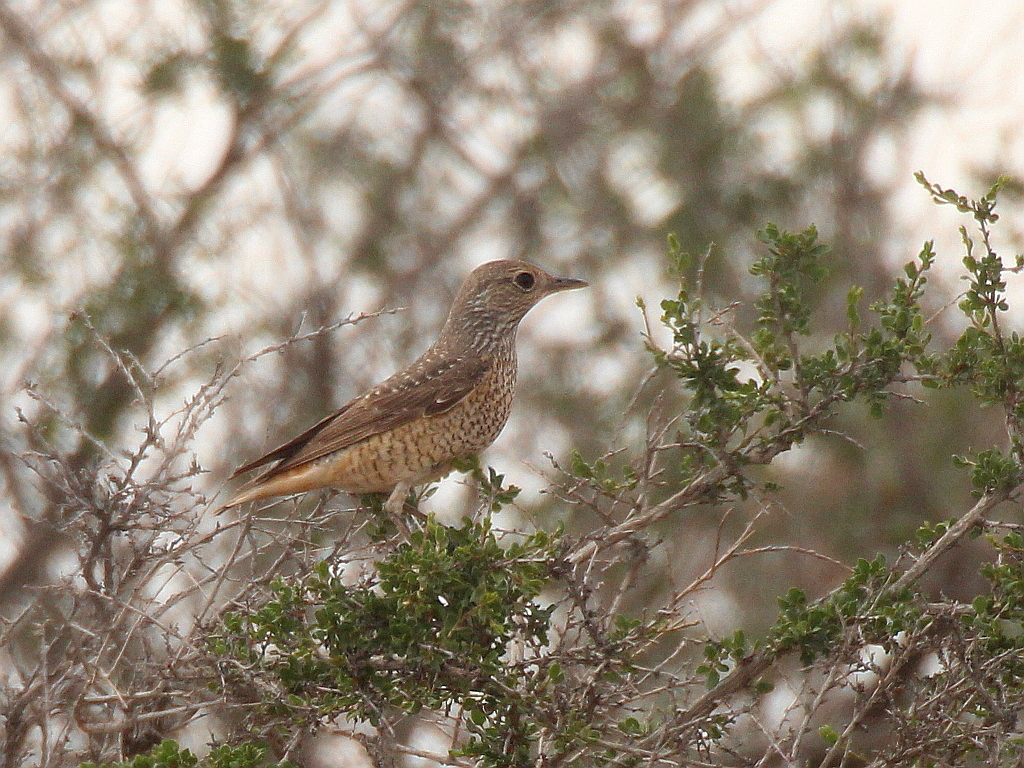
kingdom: Animalia
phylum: Chordata
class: Aves
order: Passeriformes
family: Muscicapidae
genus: Monticola
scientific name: Monticola saxatilis
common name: Rufous-tailed rock thrush
